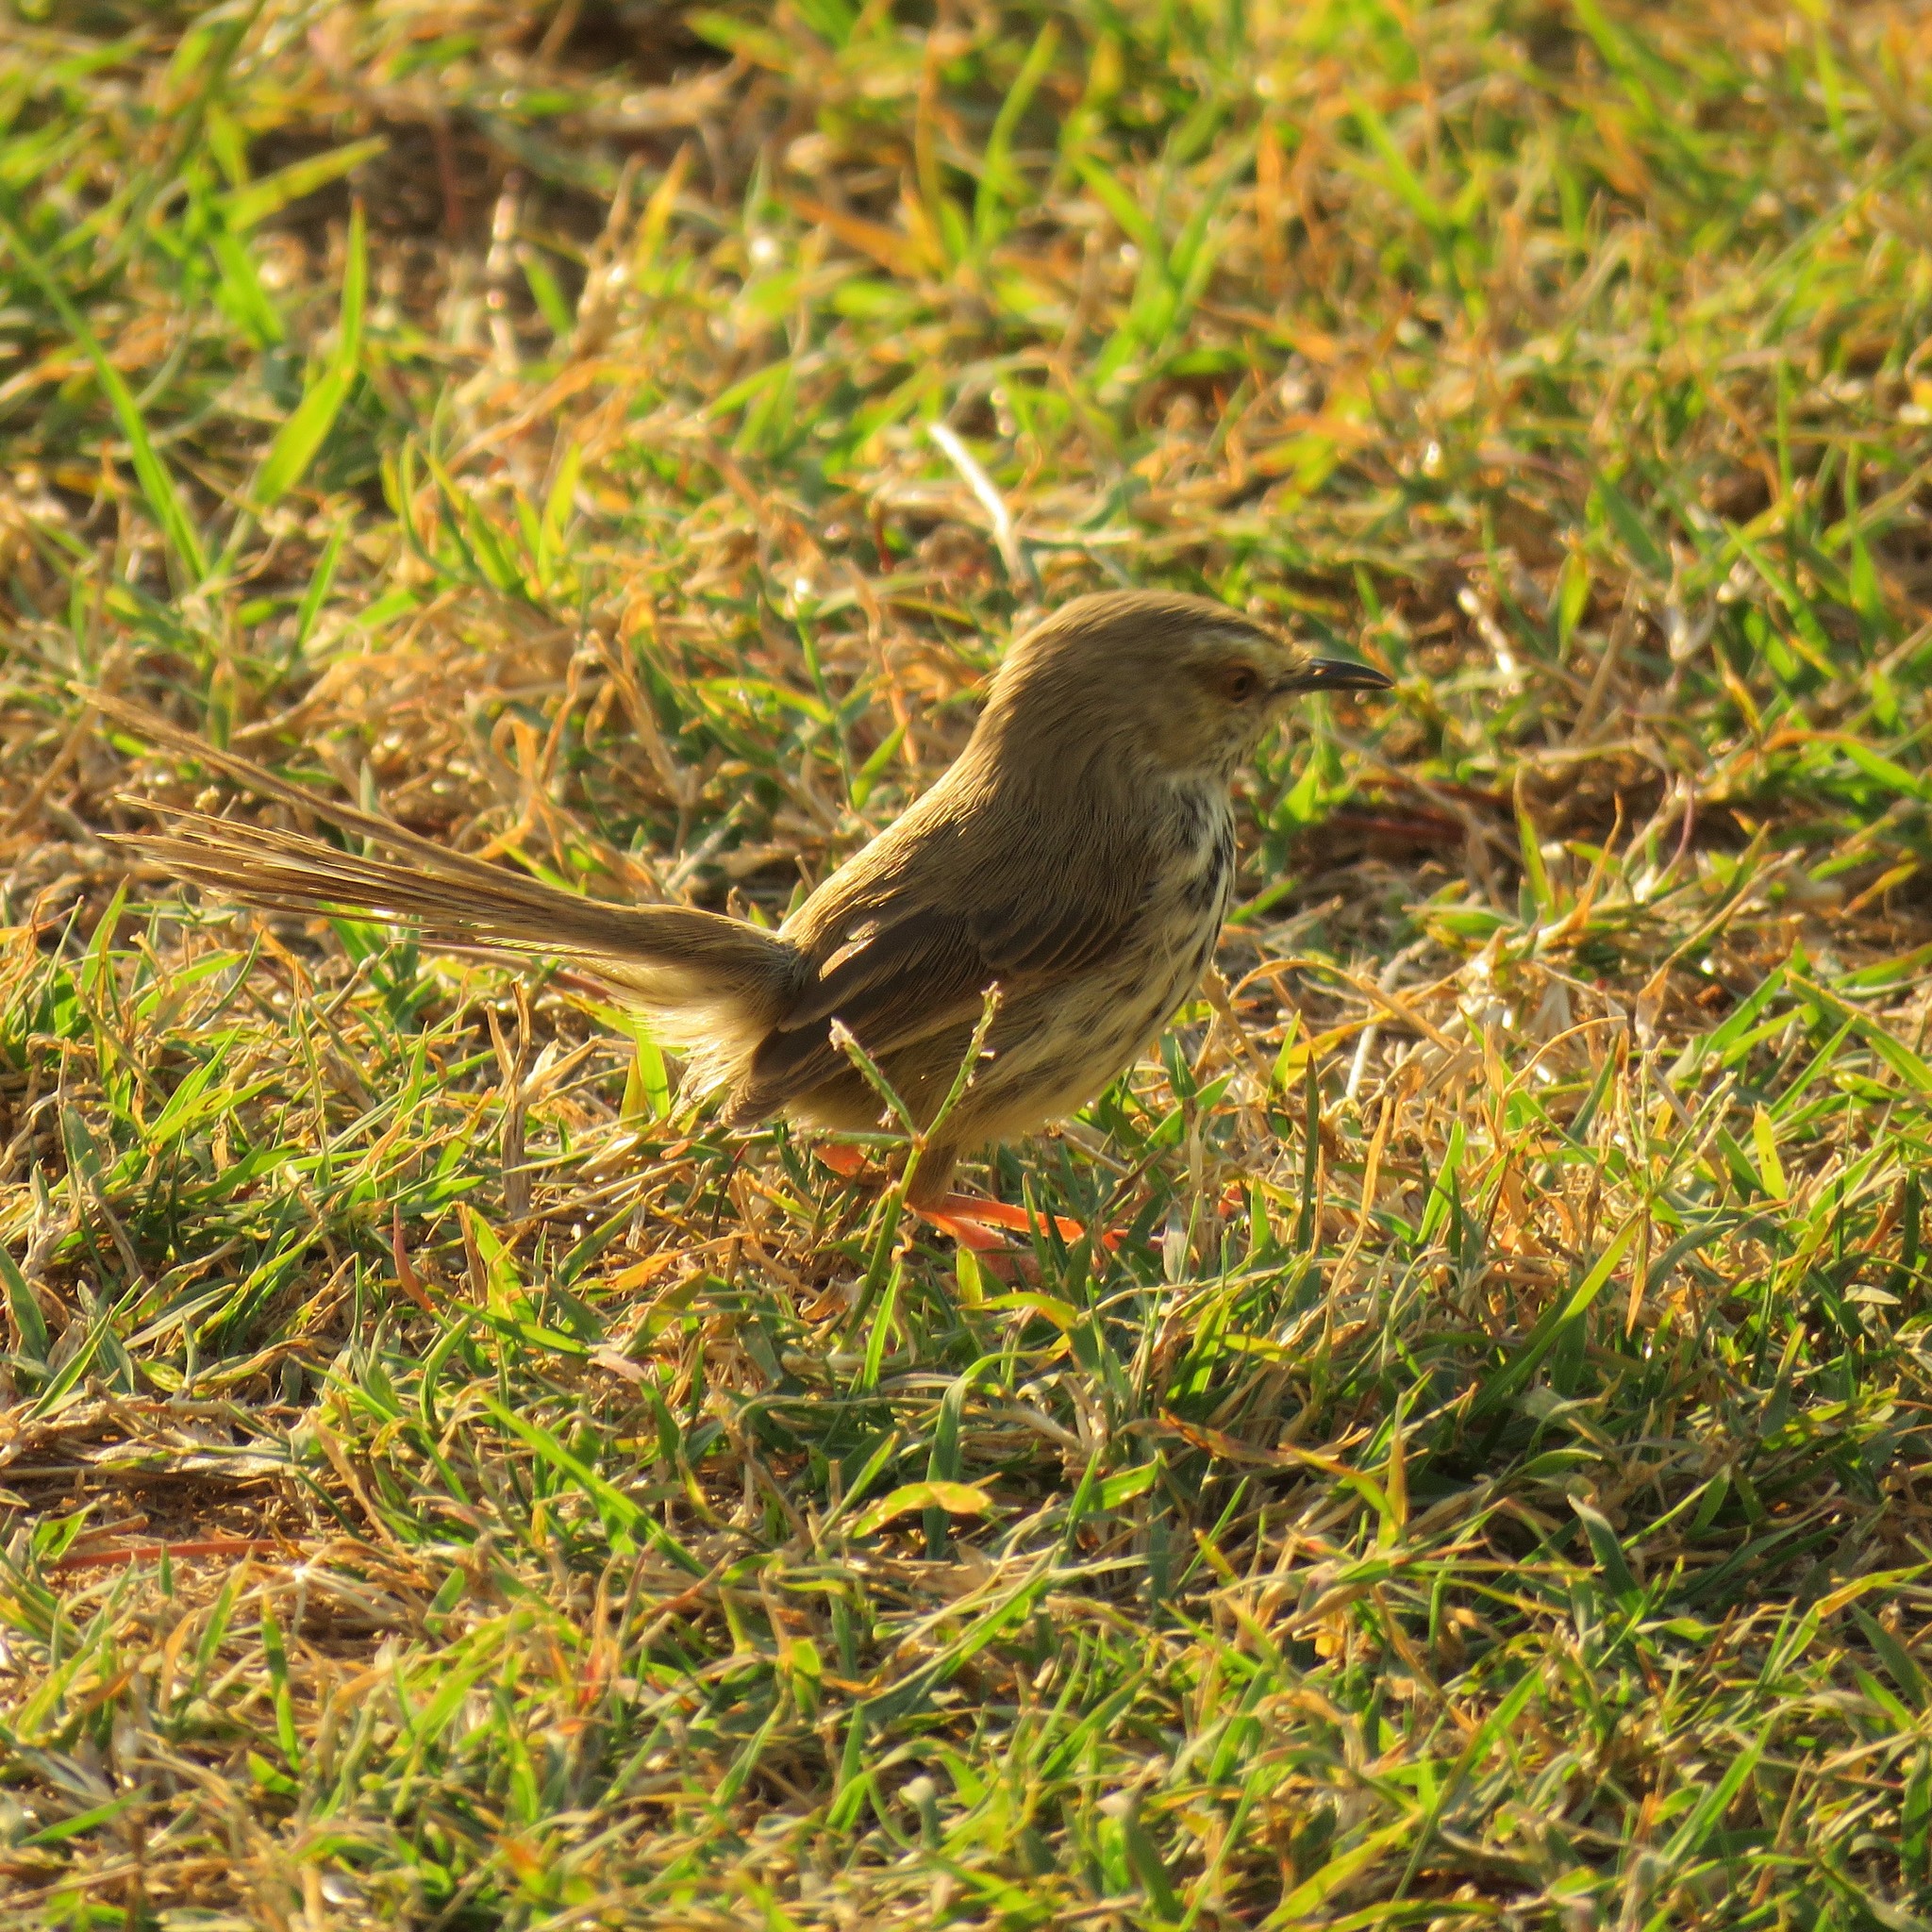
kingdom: Animalia
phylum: Chordata
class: Aves
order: Passeriformes
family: Cisticolidae
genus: Prinia
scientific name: Prinia maculosa
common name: Karoo prinia
